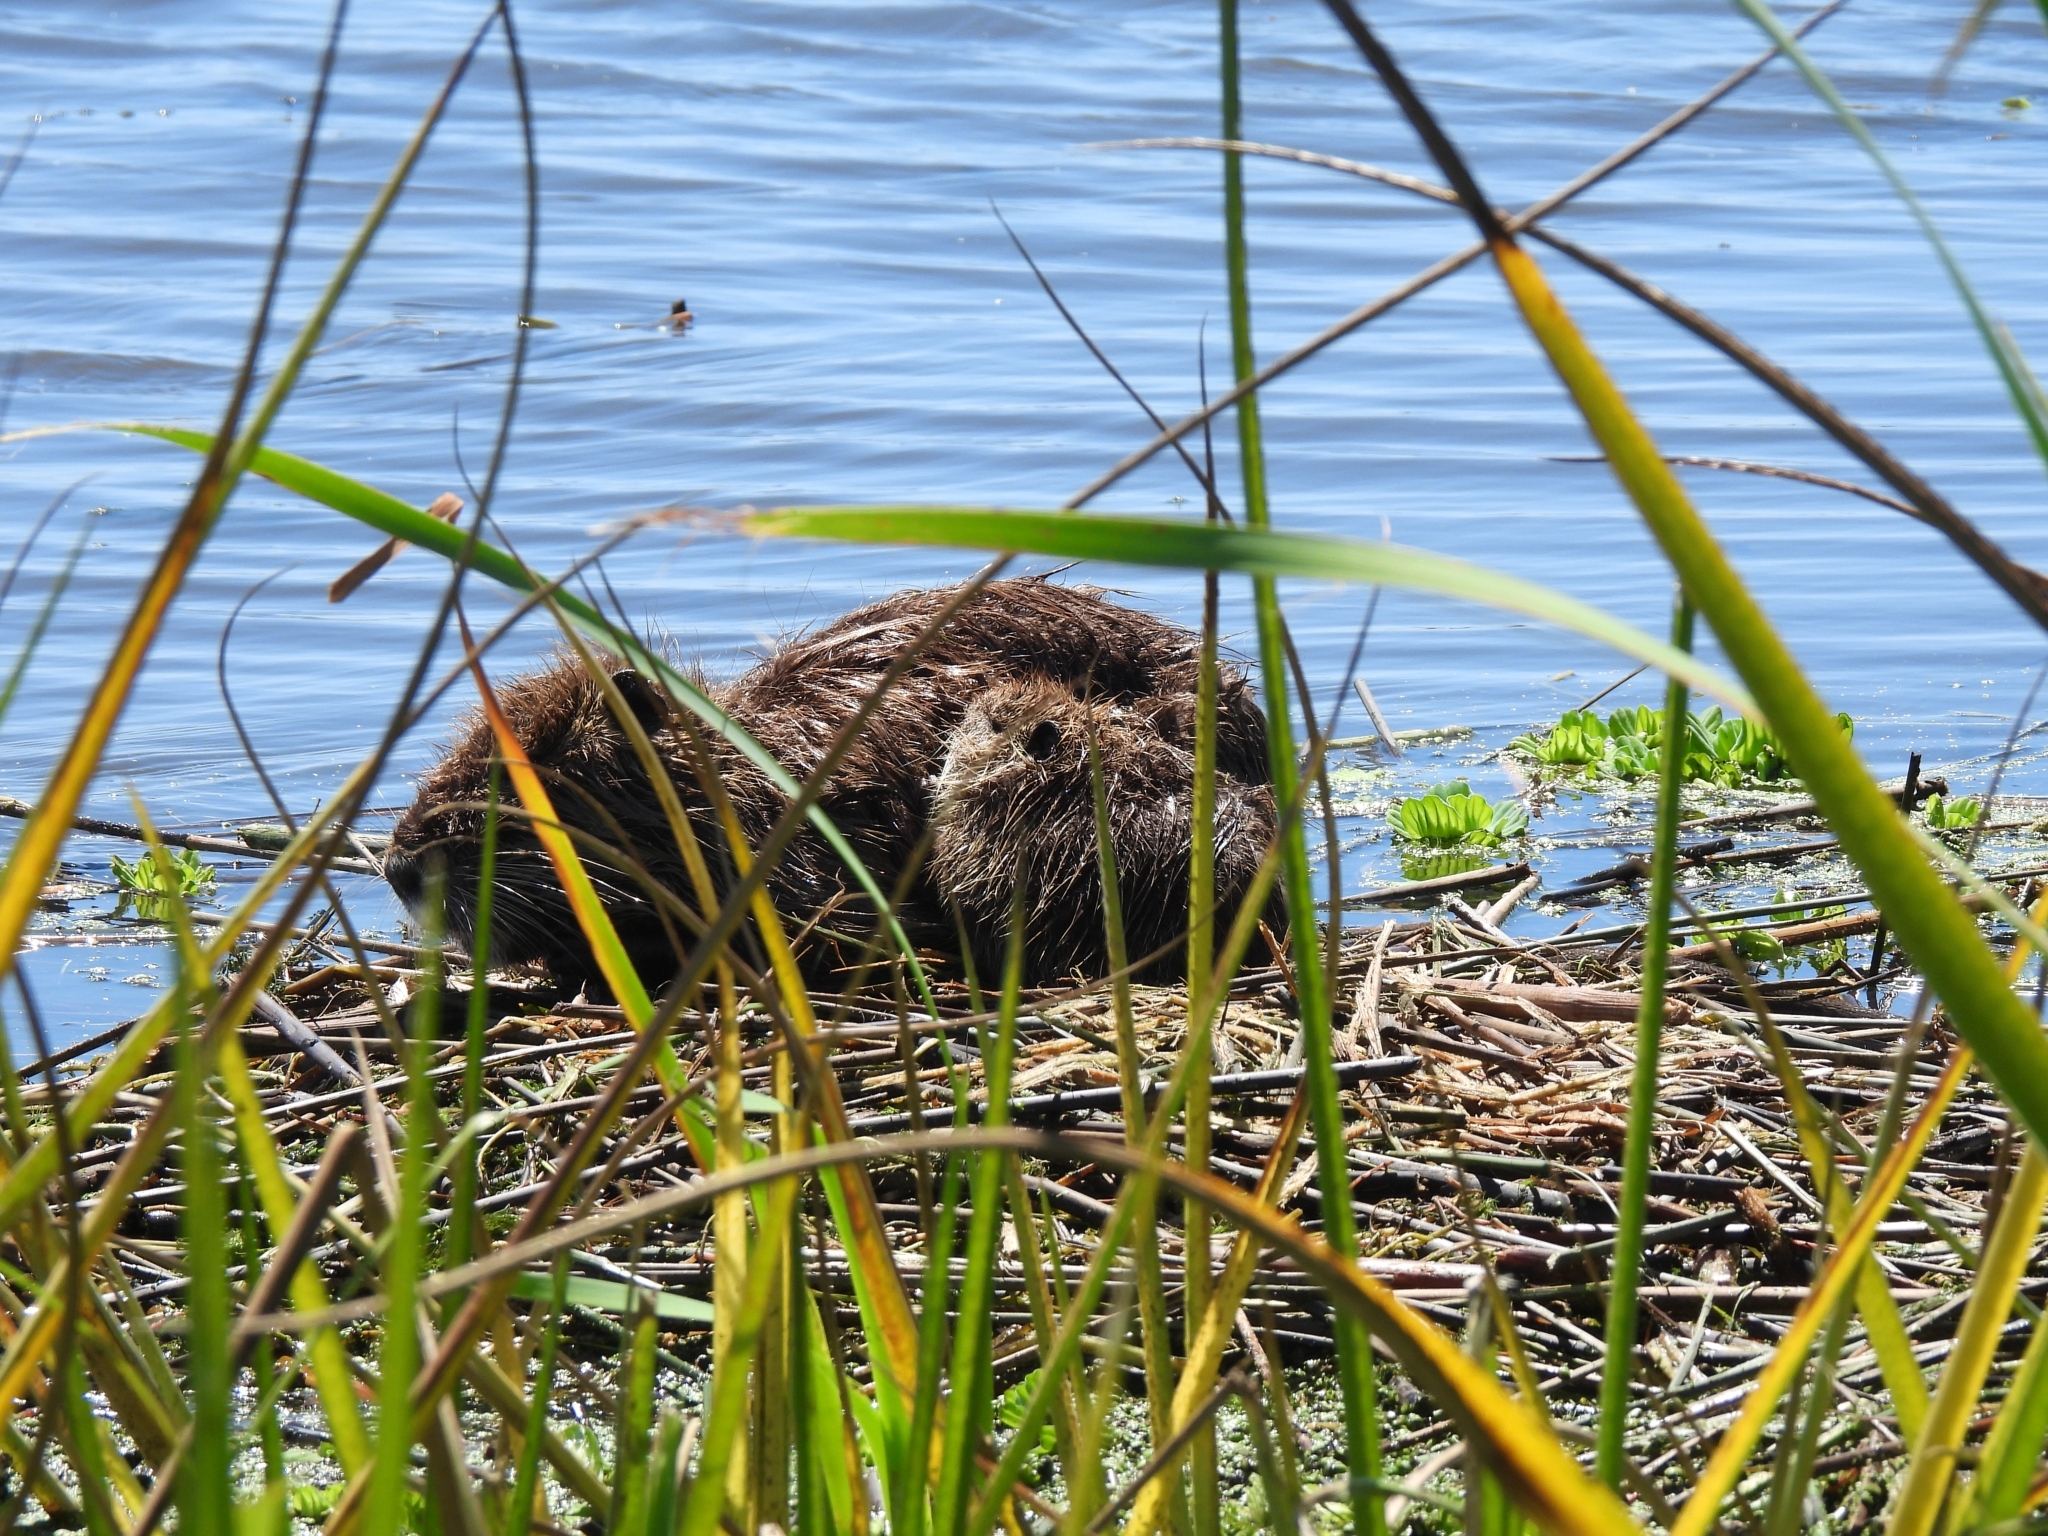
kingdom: Animalia
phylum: Chordata
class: Mammalia
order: Rodentia
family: Myocastoridae
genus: Myocastor
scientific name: Myocastor coypus
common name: Coypu
